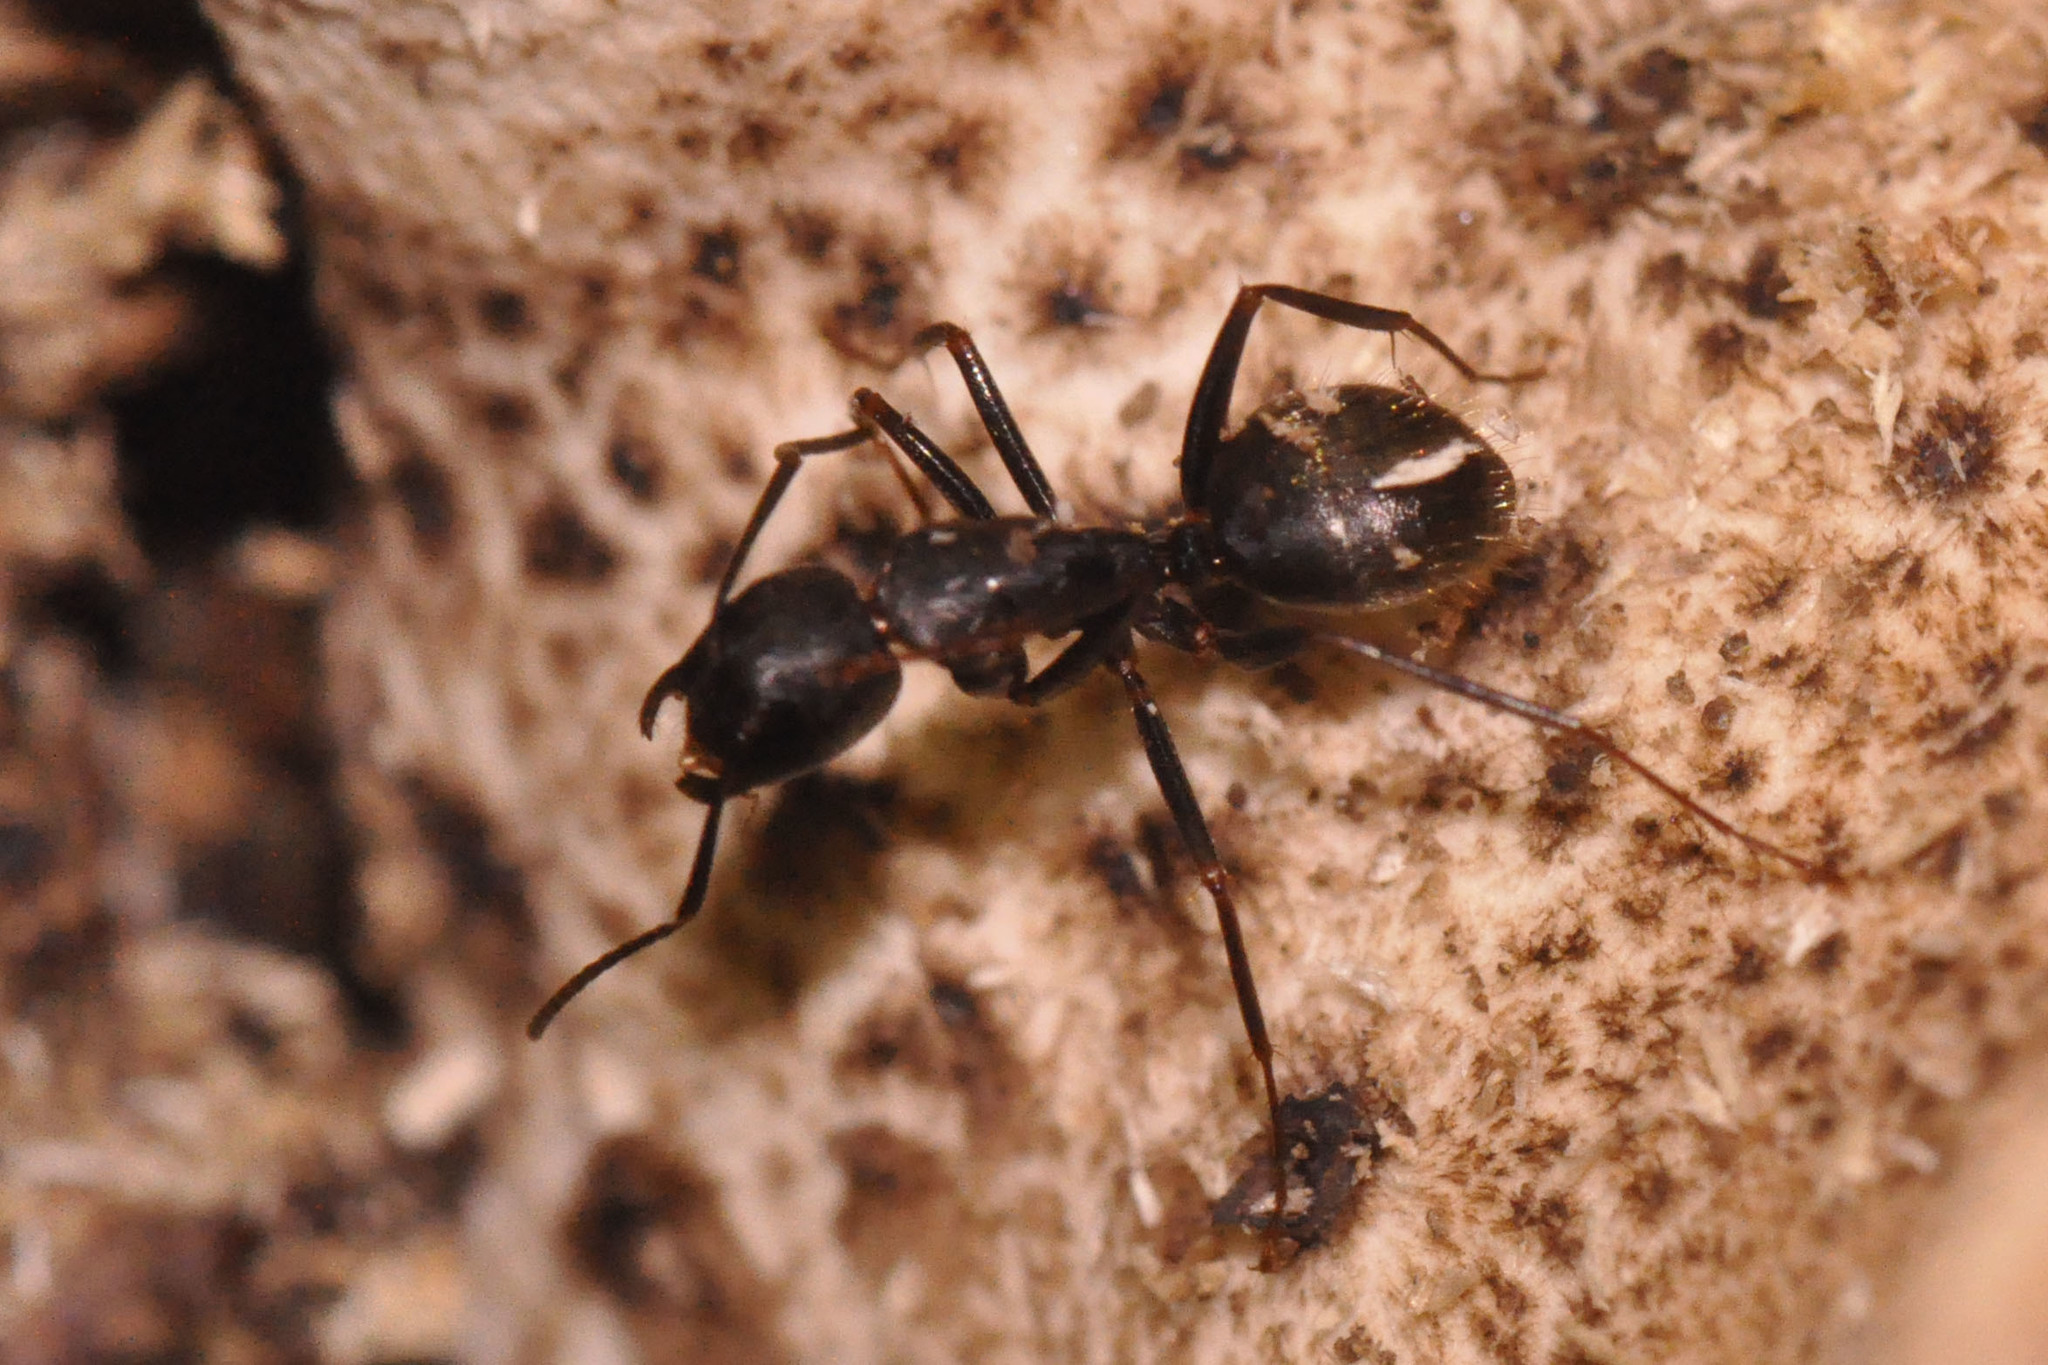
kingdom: Animalia
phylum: Arthropoda
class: Insecta
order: Hymenoptera
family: Formicidae
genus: Camponotus
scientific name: Camponotus pennsylvanicus
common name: Black carpenter ant
